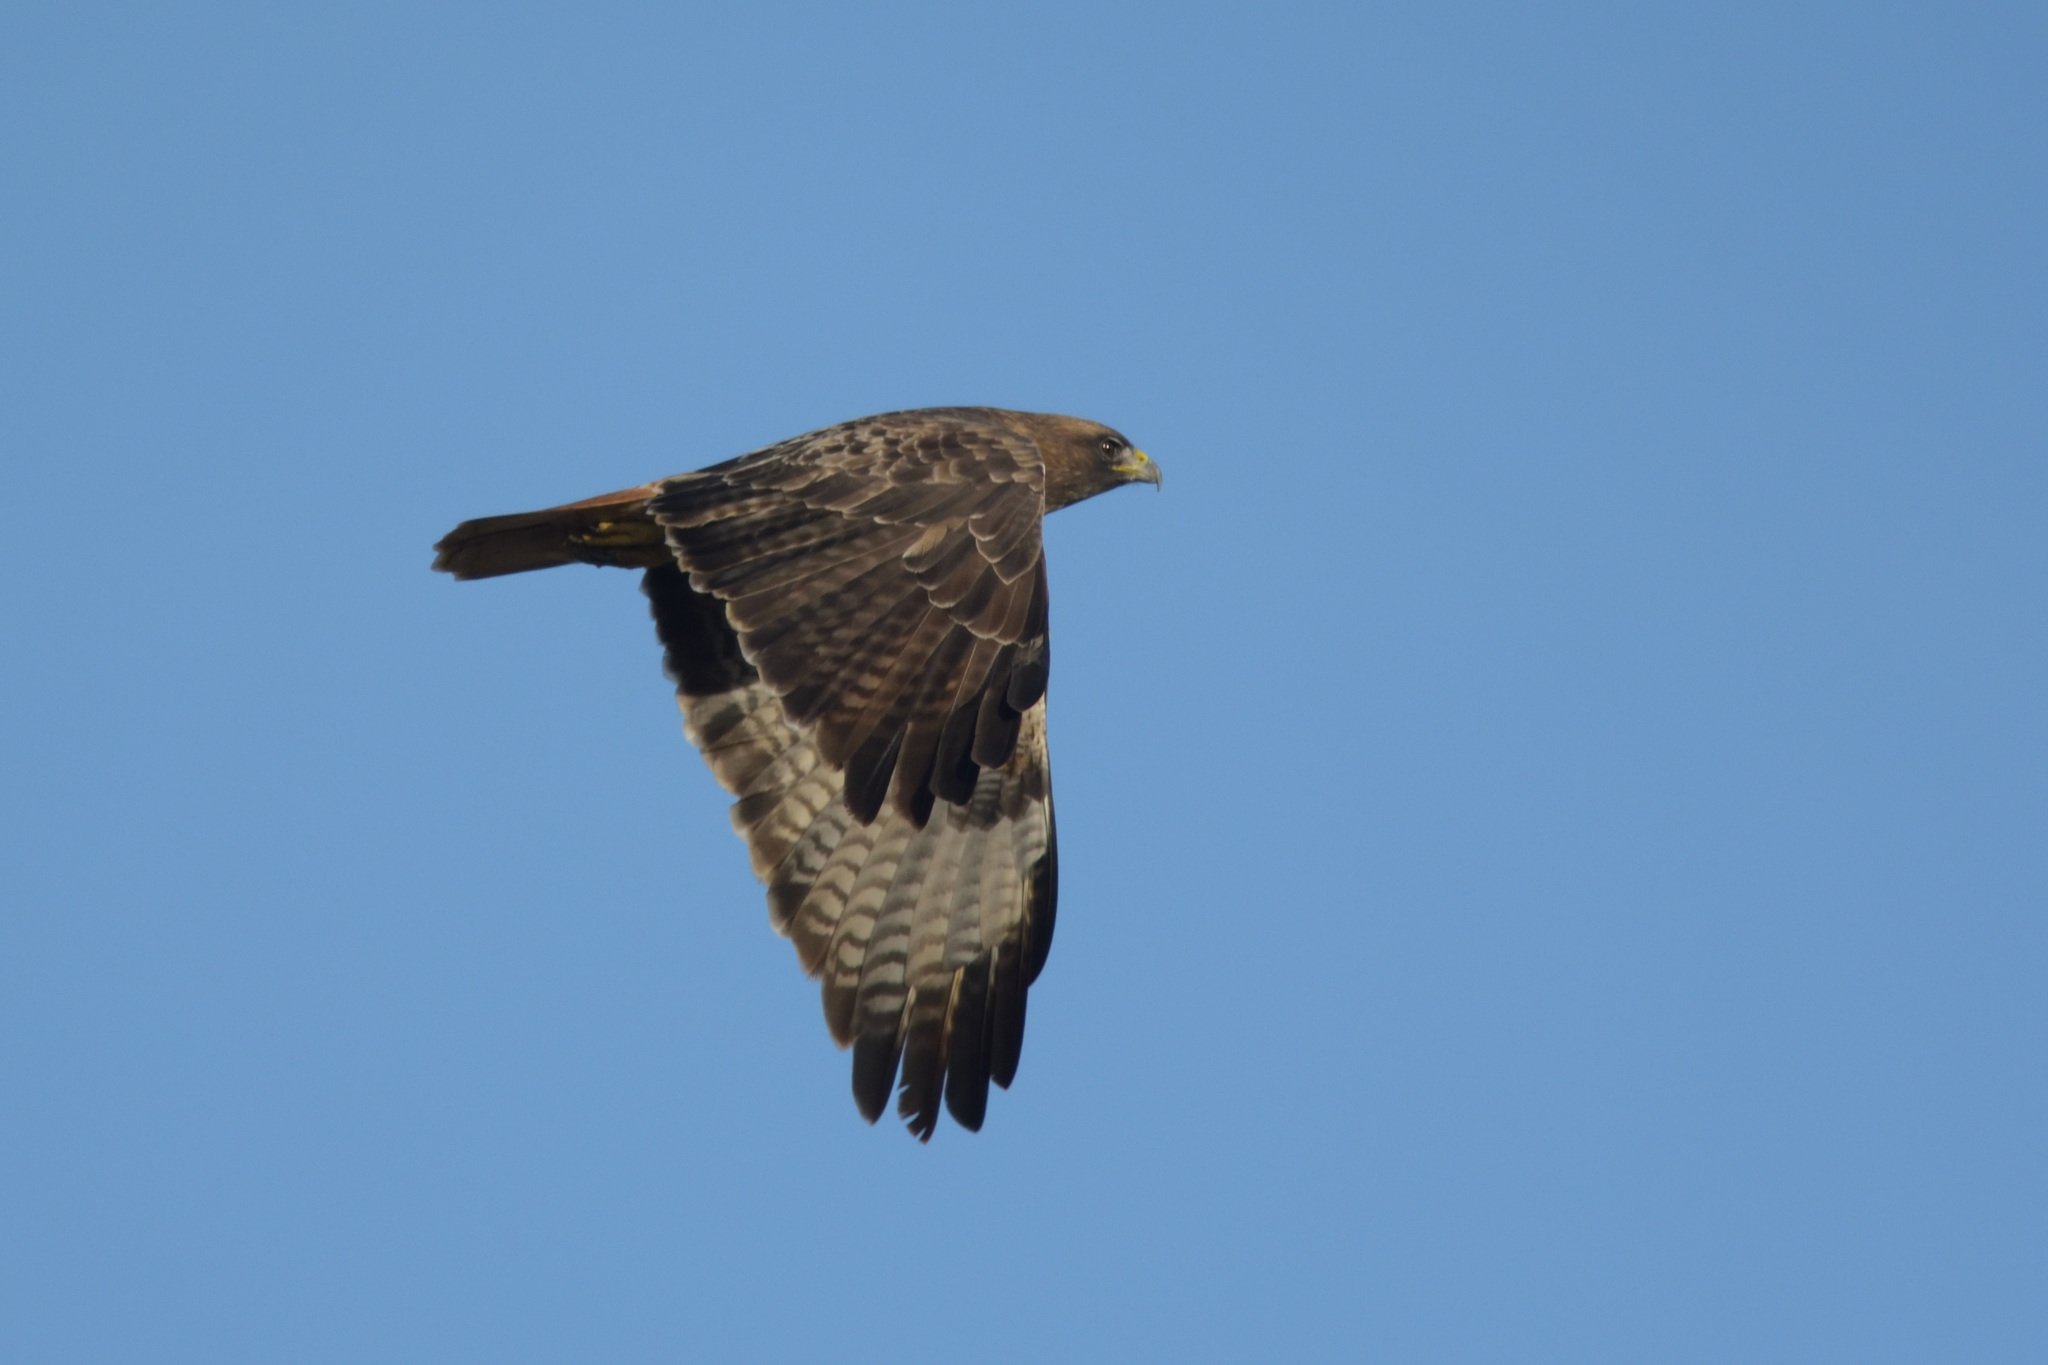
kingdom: Animalia
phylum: Chordata
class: Aves
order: Accipitriformes
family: Accipitridae
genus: Buteo
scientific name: Buteo jamaicensis
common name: Red-tailed hawk
